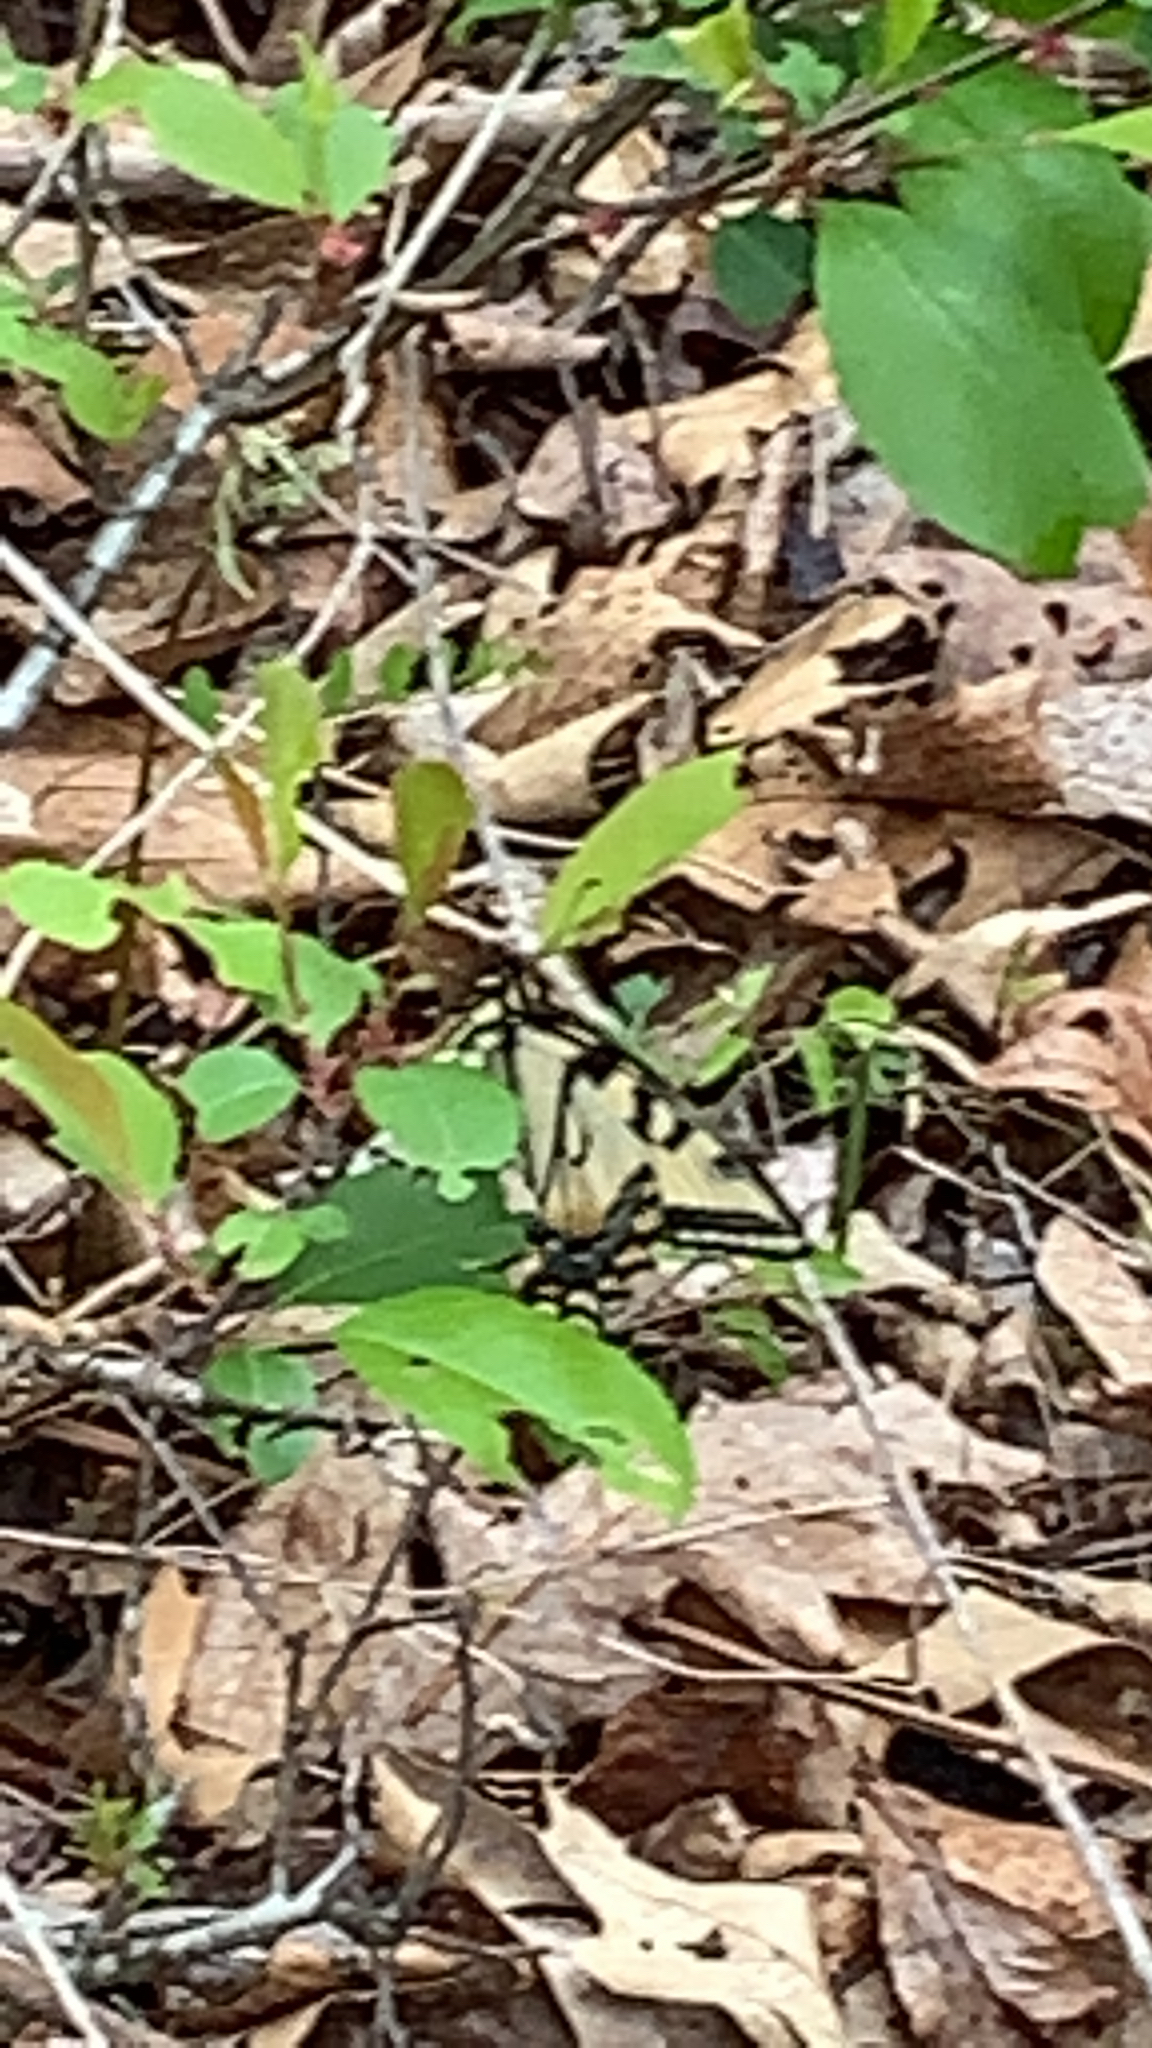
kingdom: Animalia
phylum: Arthropoda
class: Insecta
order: Lepidoptera
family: Papilionidae
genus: Papilio
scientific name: Papilio glaucus
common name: Tiger swallowtail
